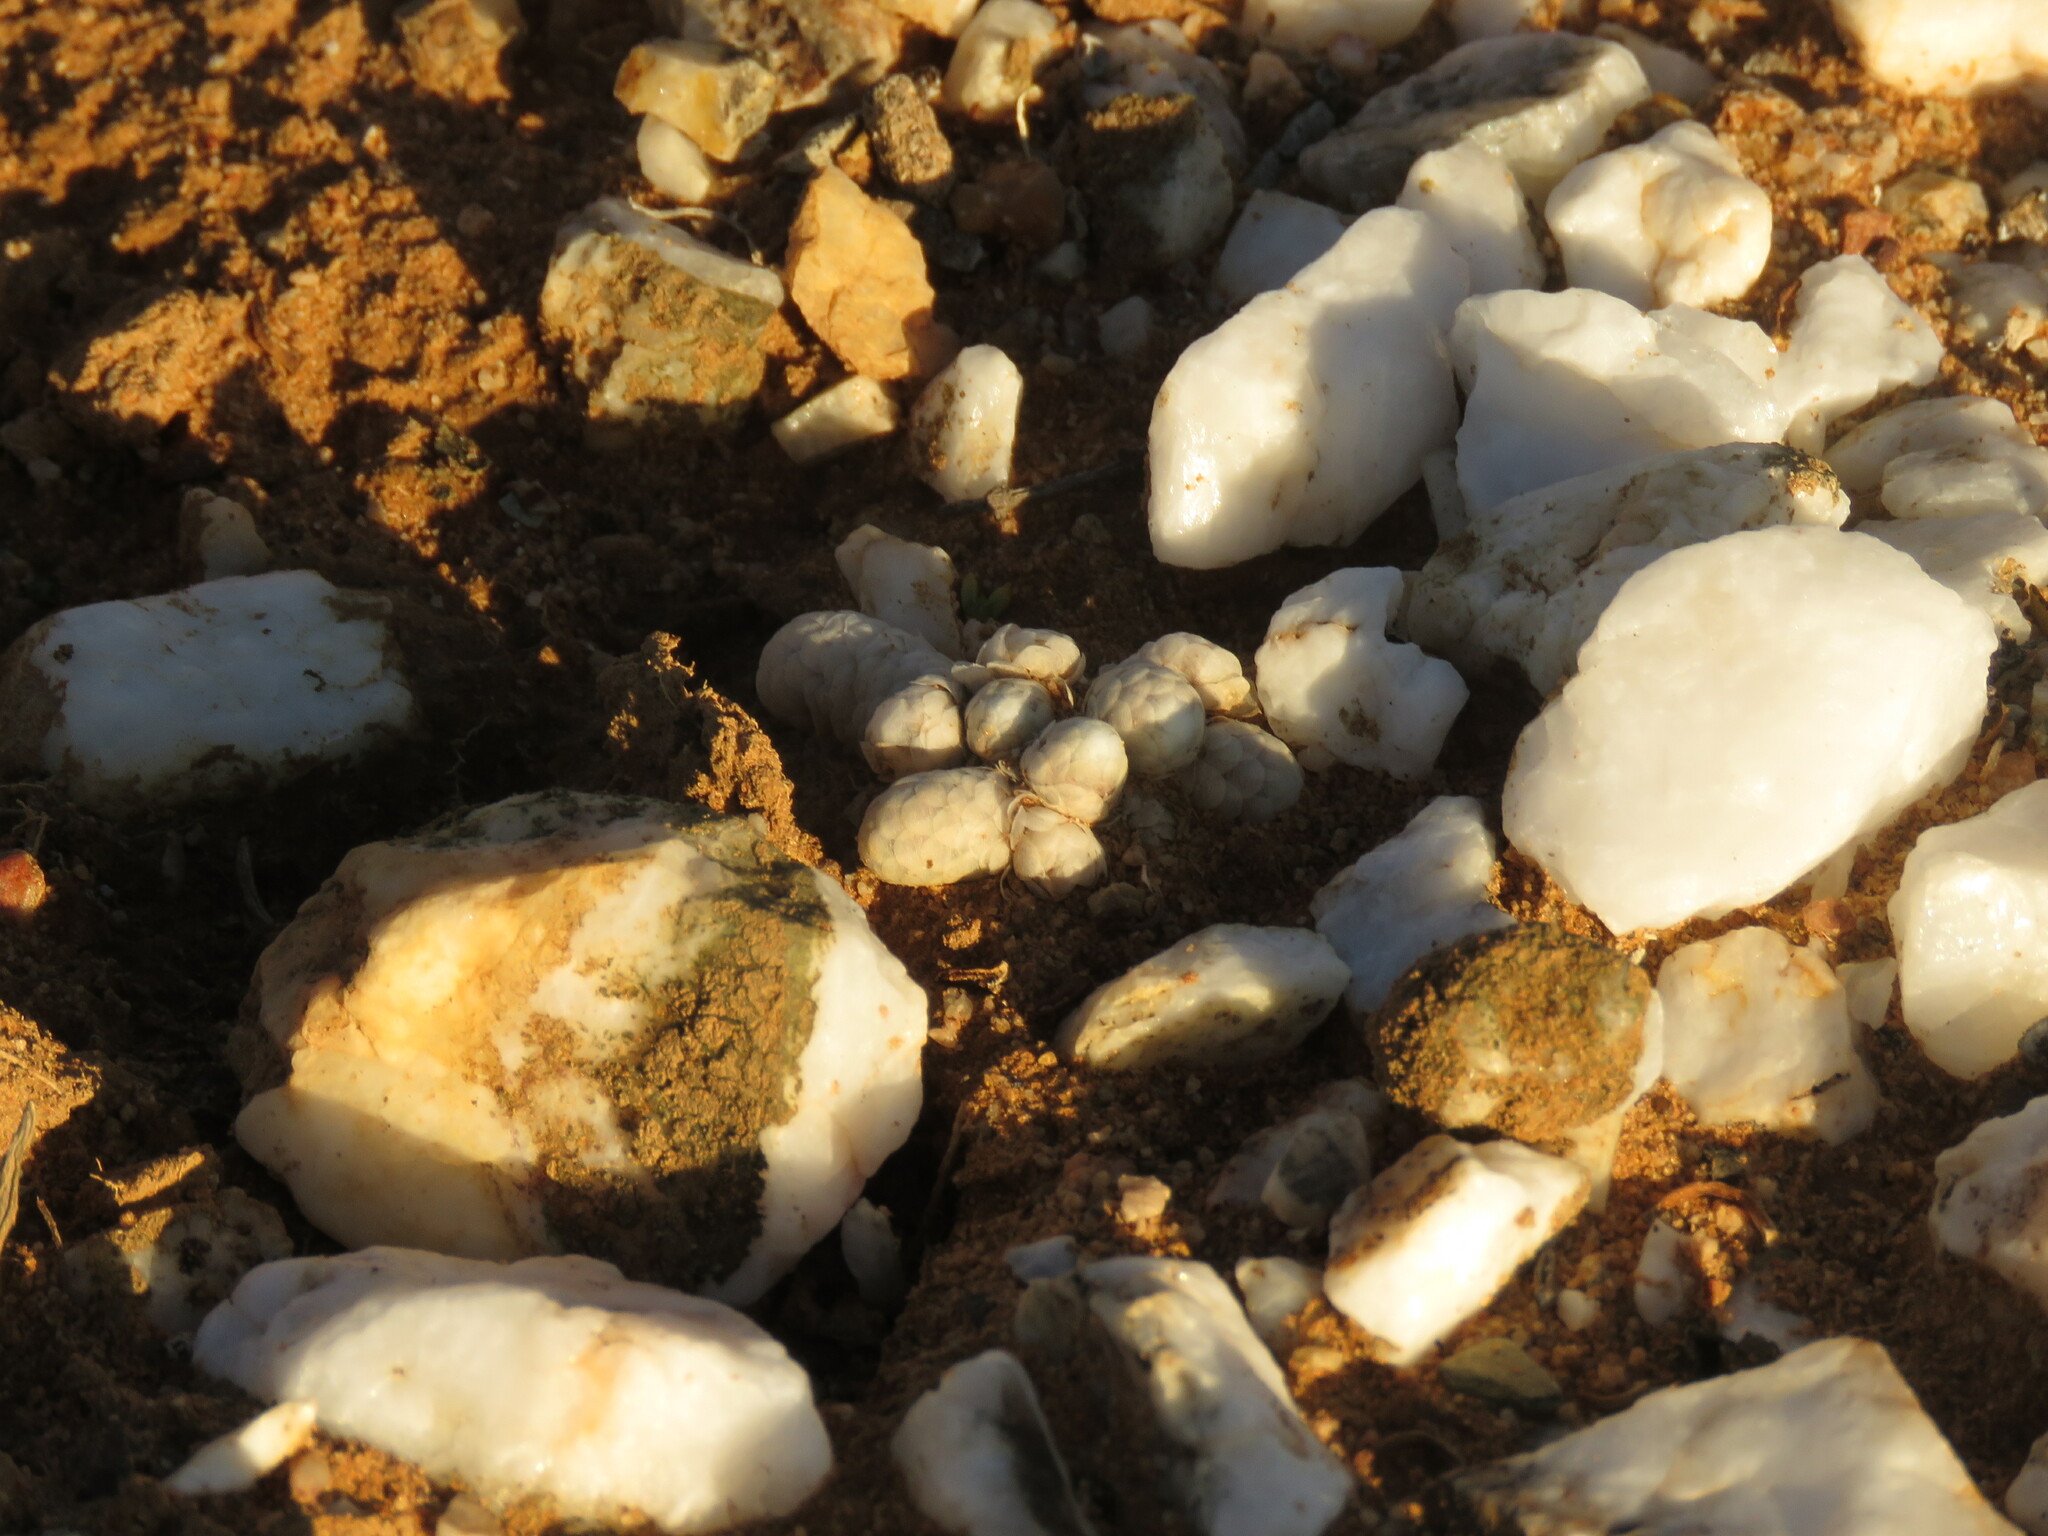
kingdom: Plantae
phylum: Tracheophyta
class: Magnoliopsida
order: Caryophyllales
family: Anacampserotaceae
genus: Avonia
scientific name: Avonia papyracea
